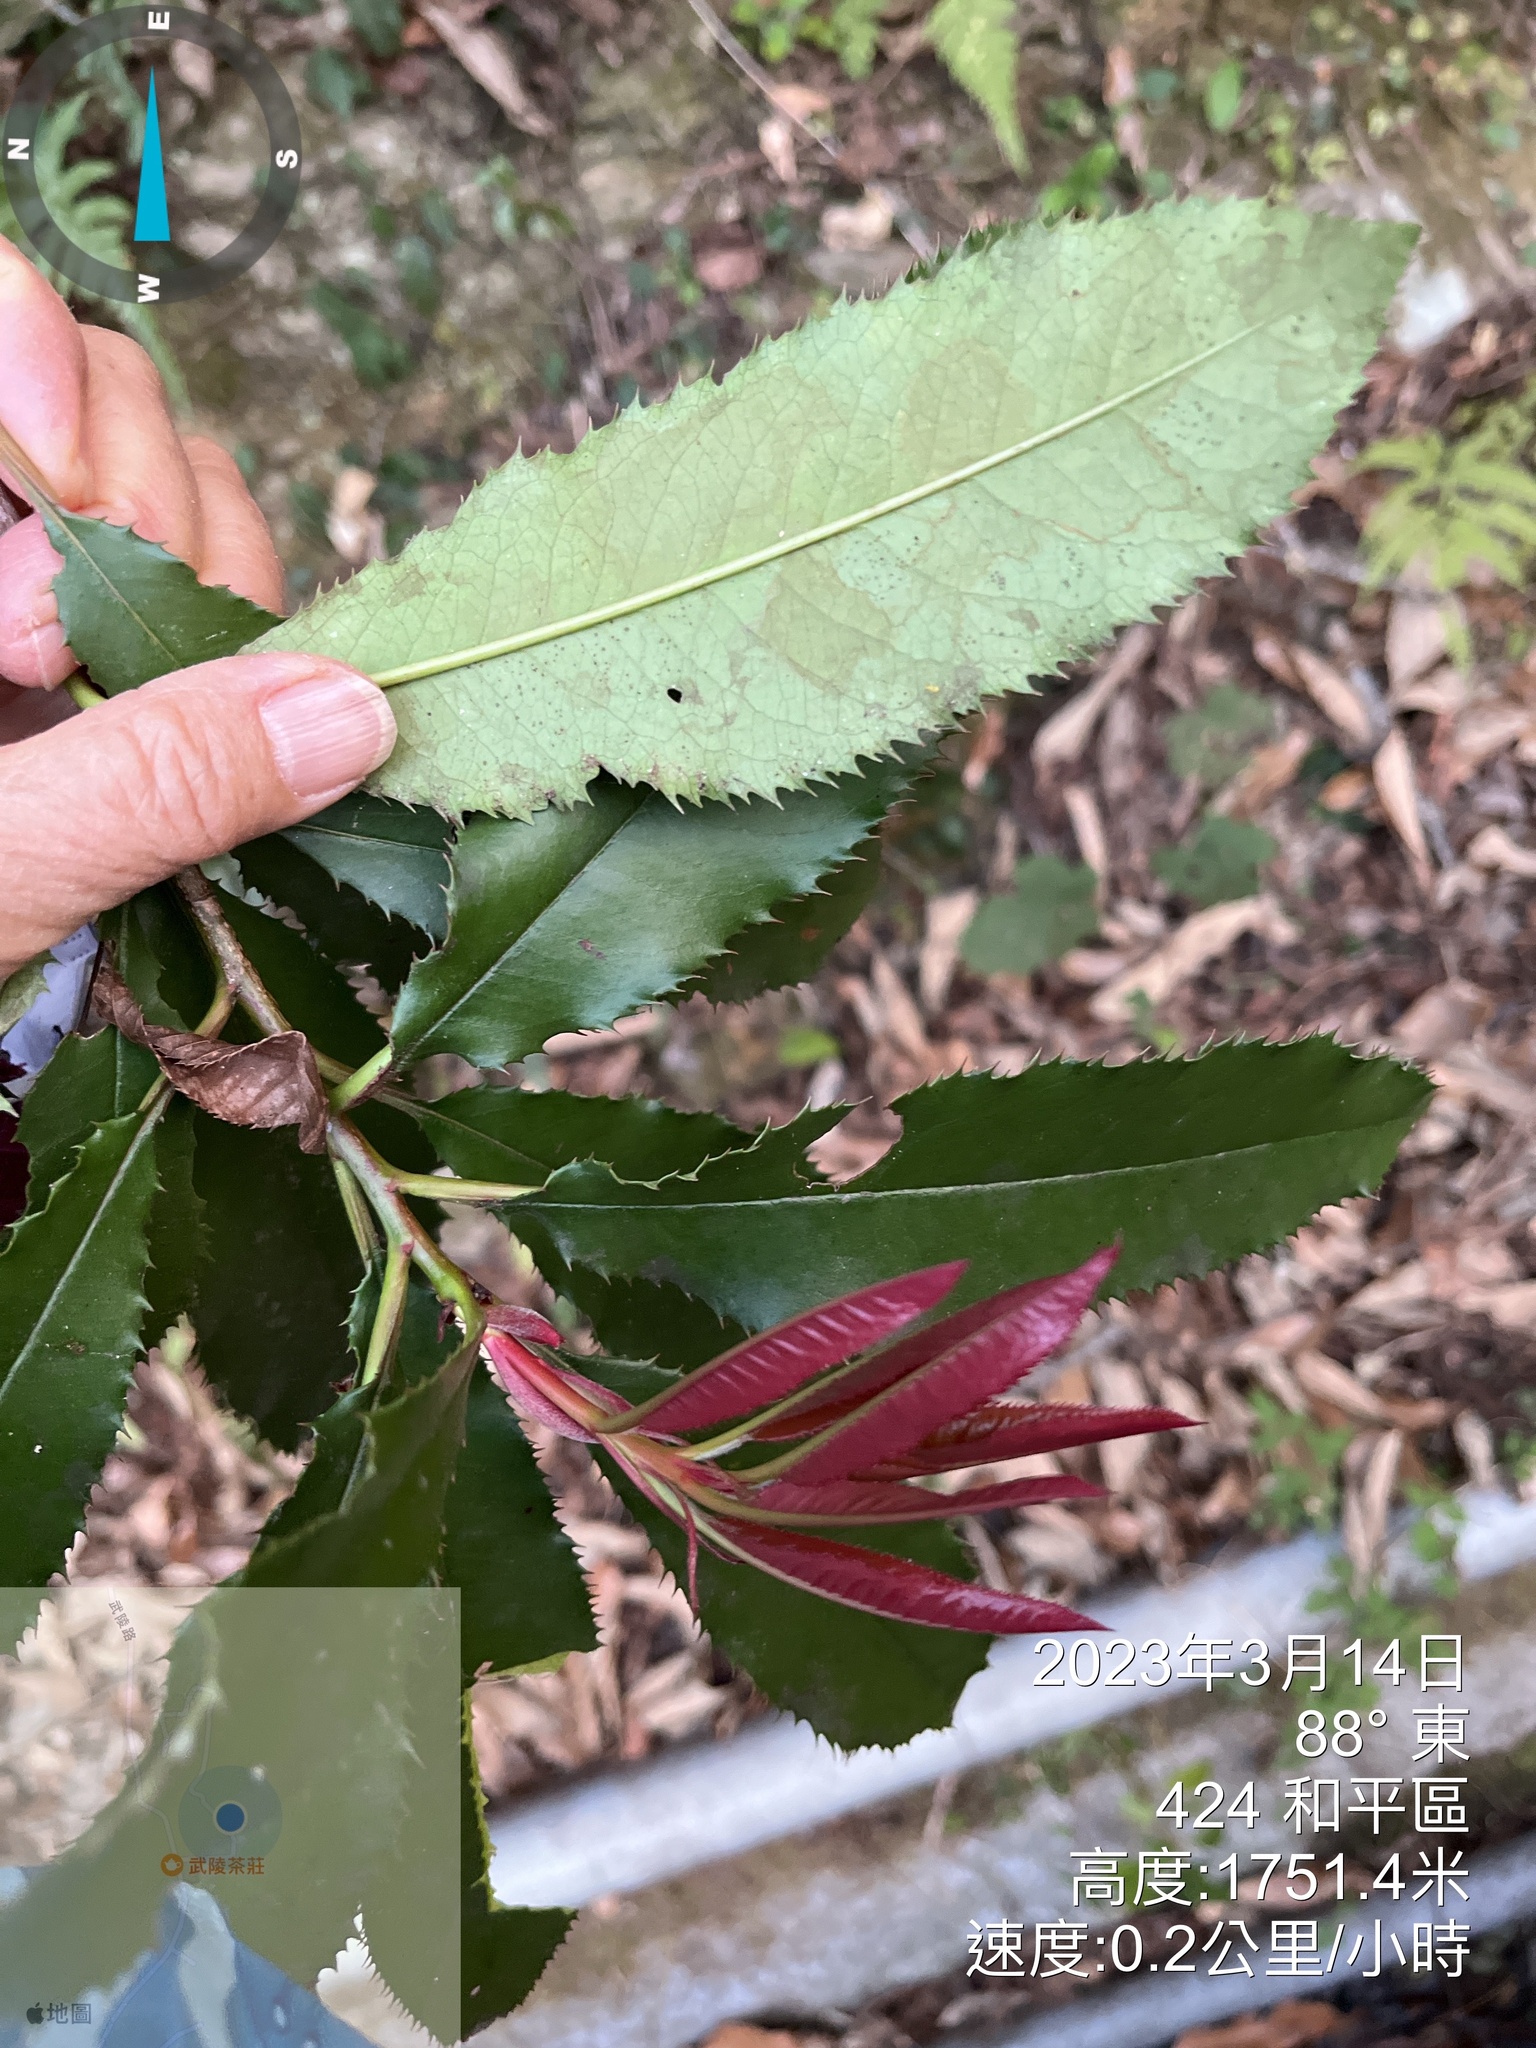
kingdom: Plantae
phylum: Tracheophyta
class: Magnoliopsida
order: Rosales
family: Rosaceae
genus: Photinia
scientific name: Photinia serratifolia
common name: Taiwanese photinia
